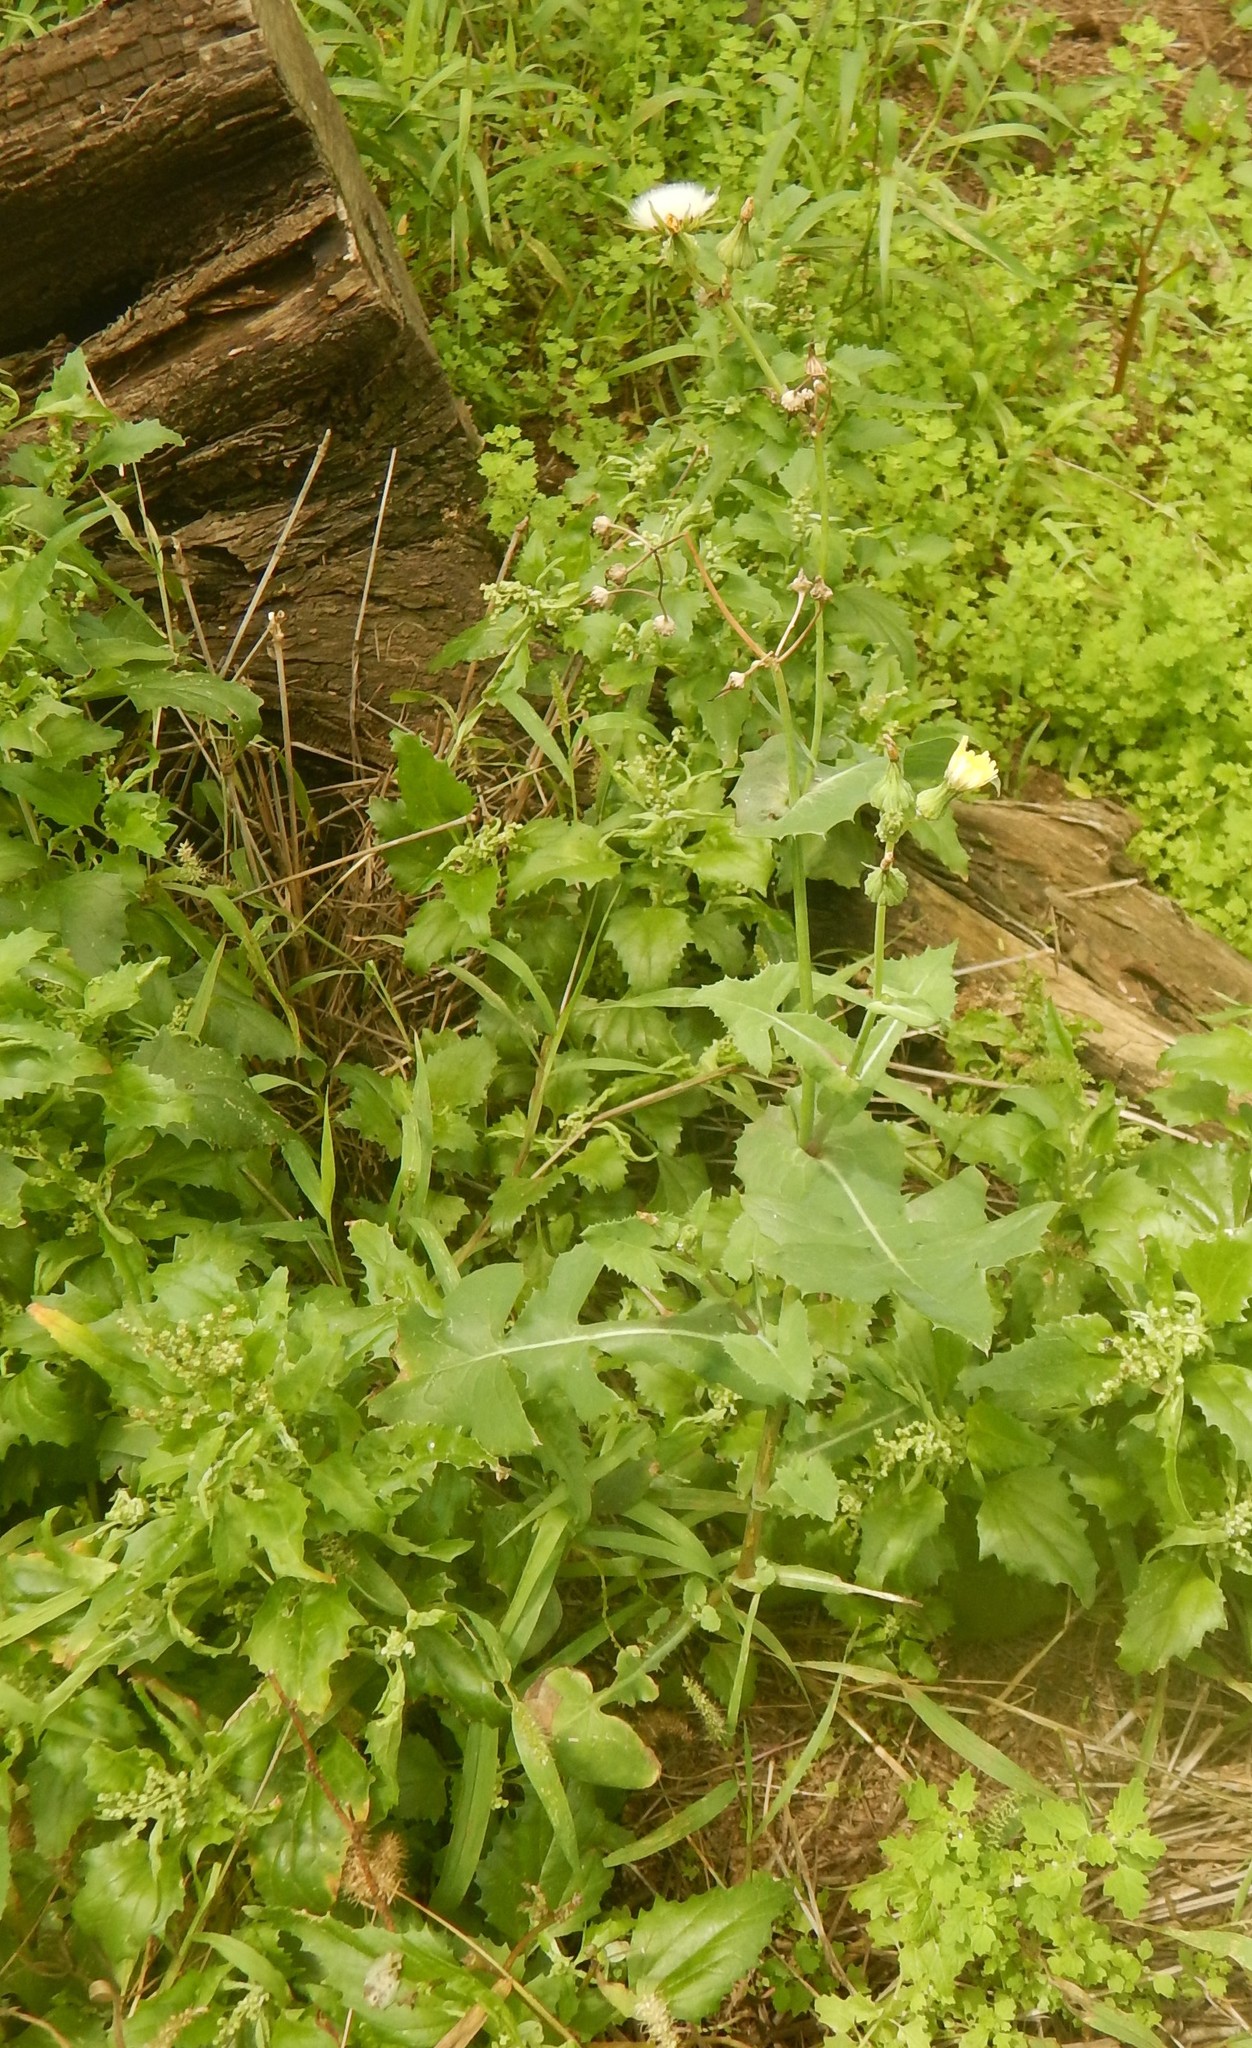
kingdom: Plantae
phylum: Tracheophyta
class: Magnoliopsida
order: Asterales
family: Asteraceae
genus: Sonchus
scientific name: Sonchus oleraceus
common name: Common sowthistle
